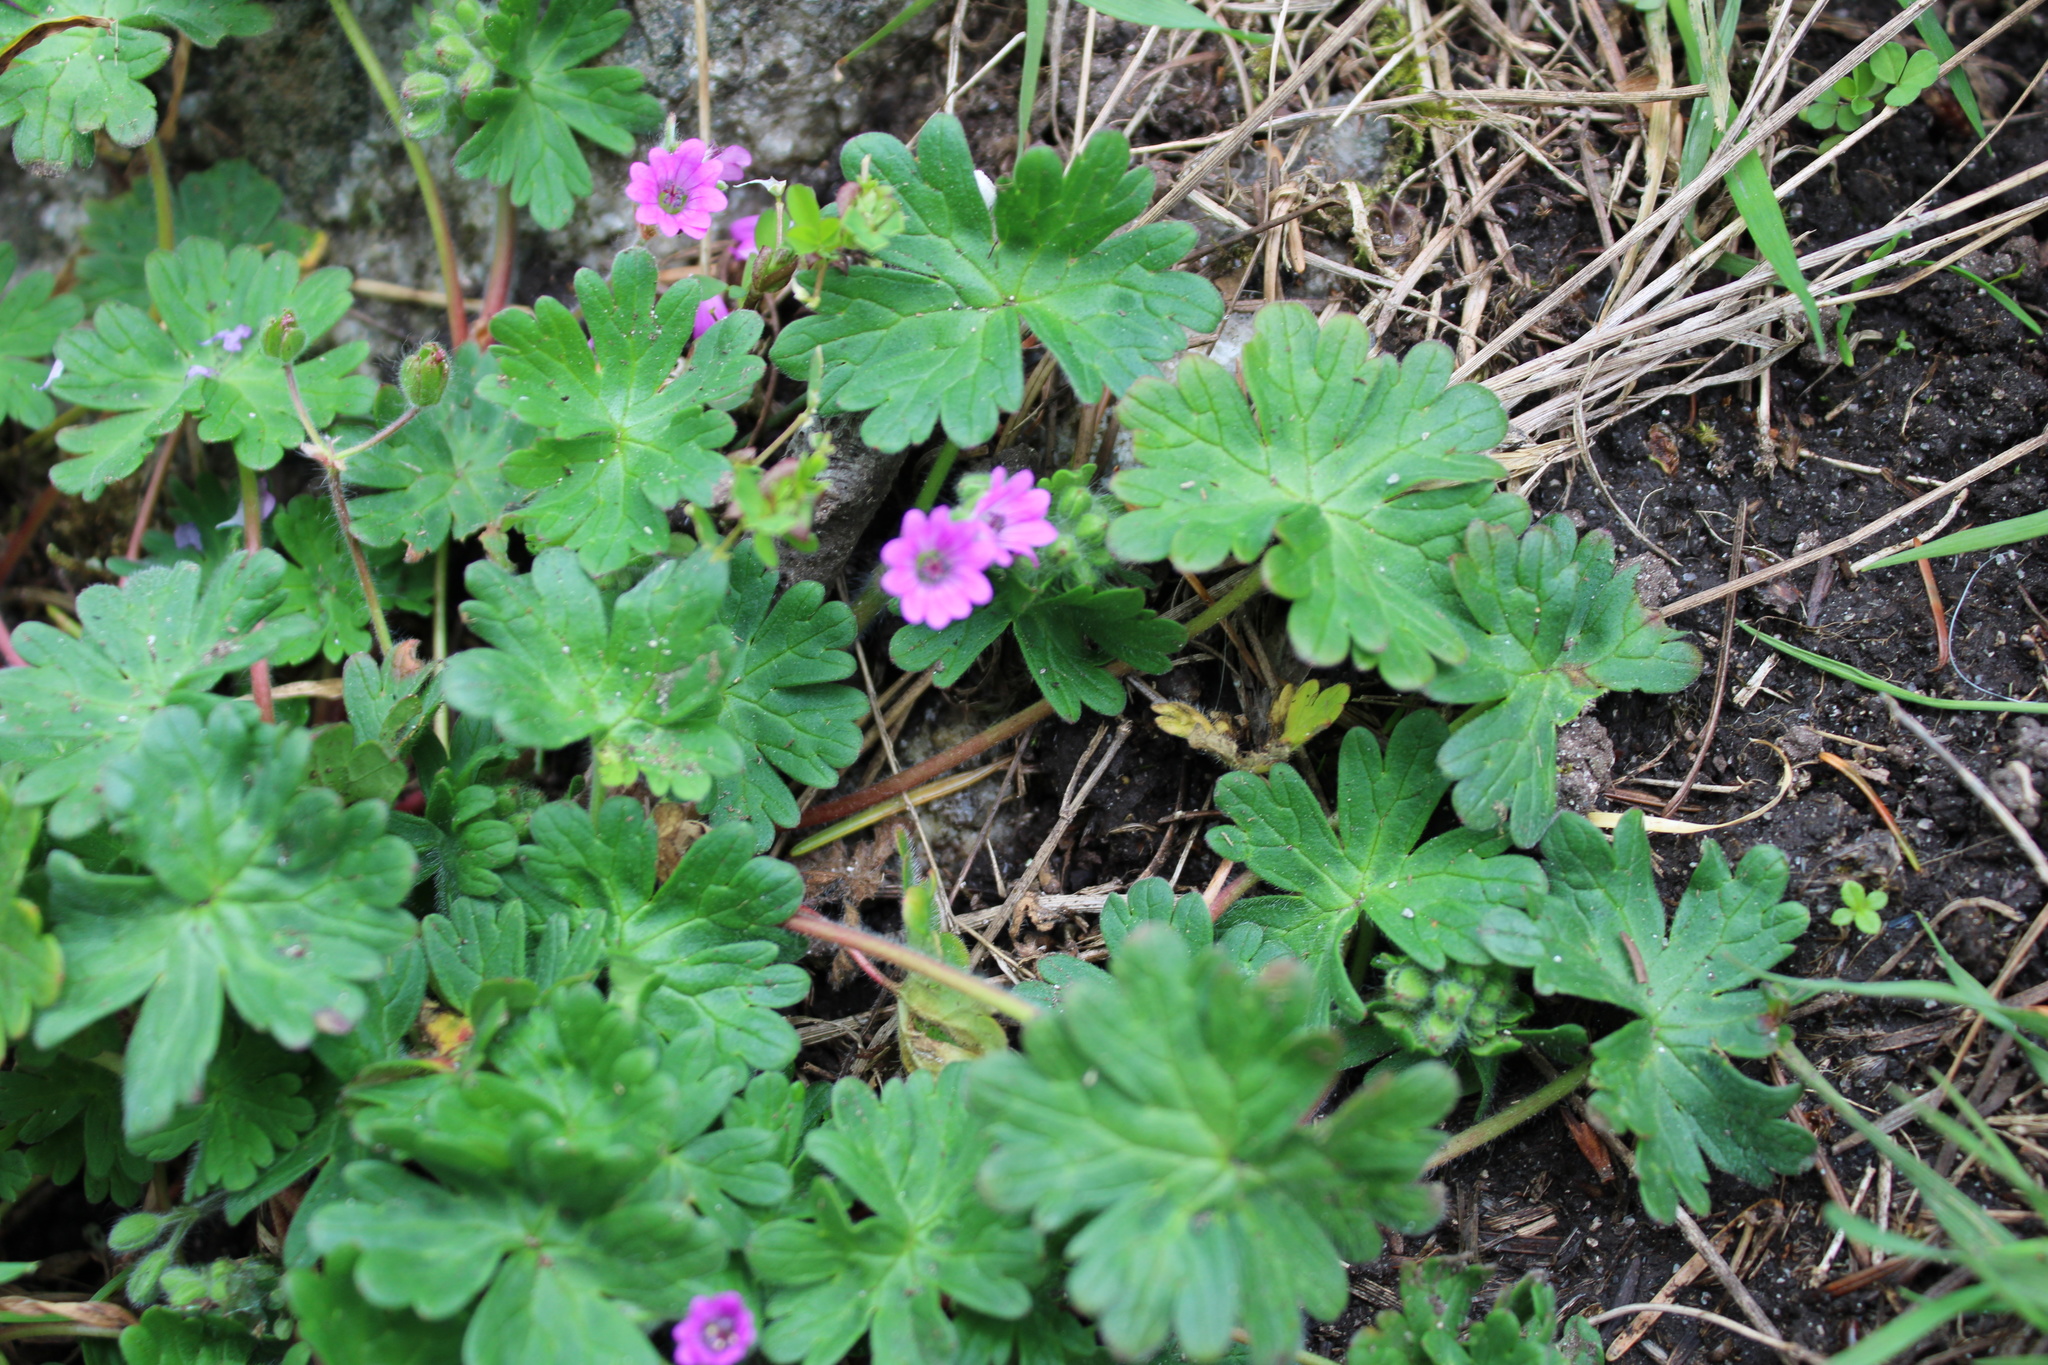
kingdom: Plantae
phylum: Tracheophyta
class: Magnoliopsida
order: Geraniales
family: Geraniaceae
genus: Geranium
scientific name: Geranium molle
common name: Dove's-foot crane's-bill
